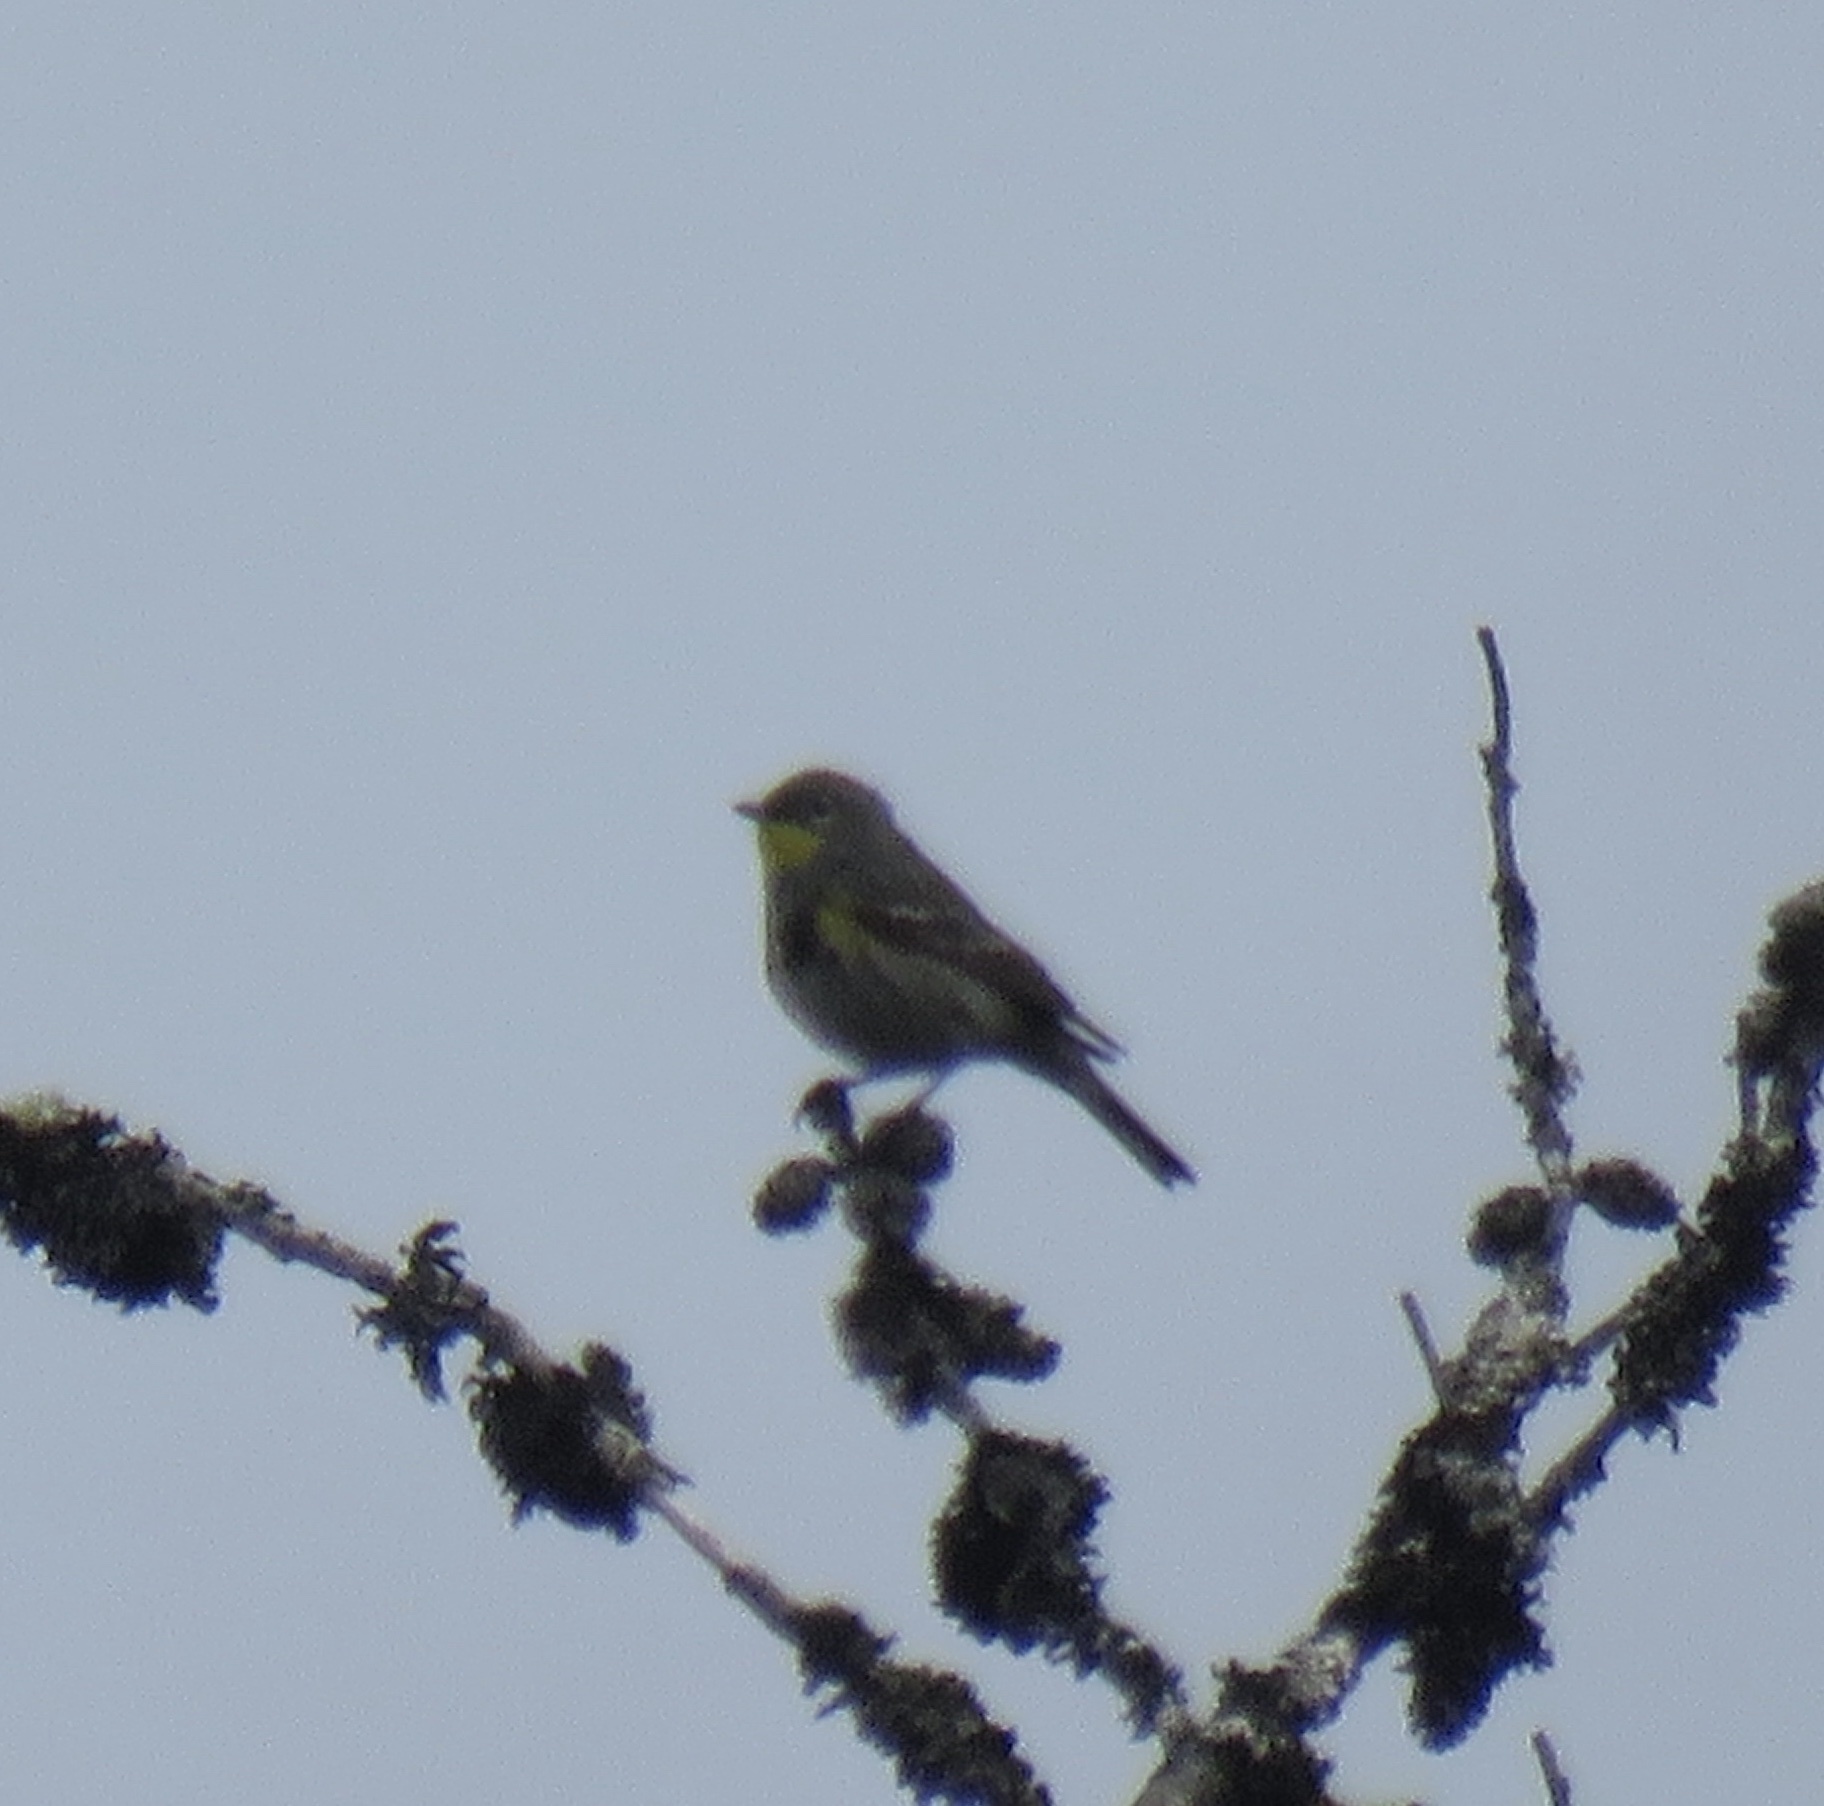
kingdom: Animalia
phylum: Chordata
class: Aves
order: Passeriformes
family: Parulidae
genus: Setophaga
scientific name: Setophaga auduboni
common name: Audubon's warbler
